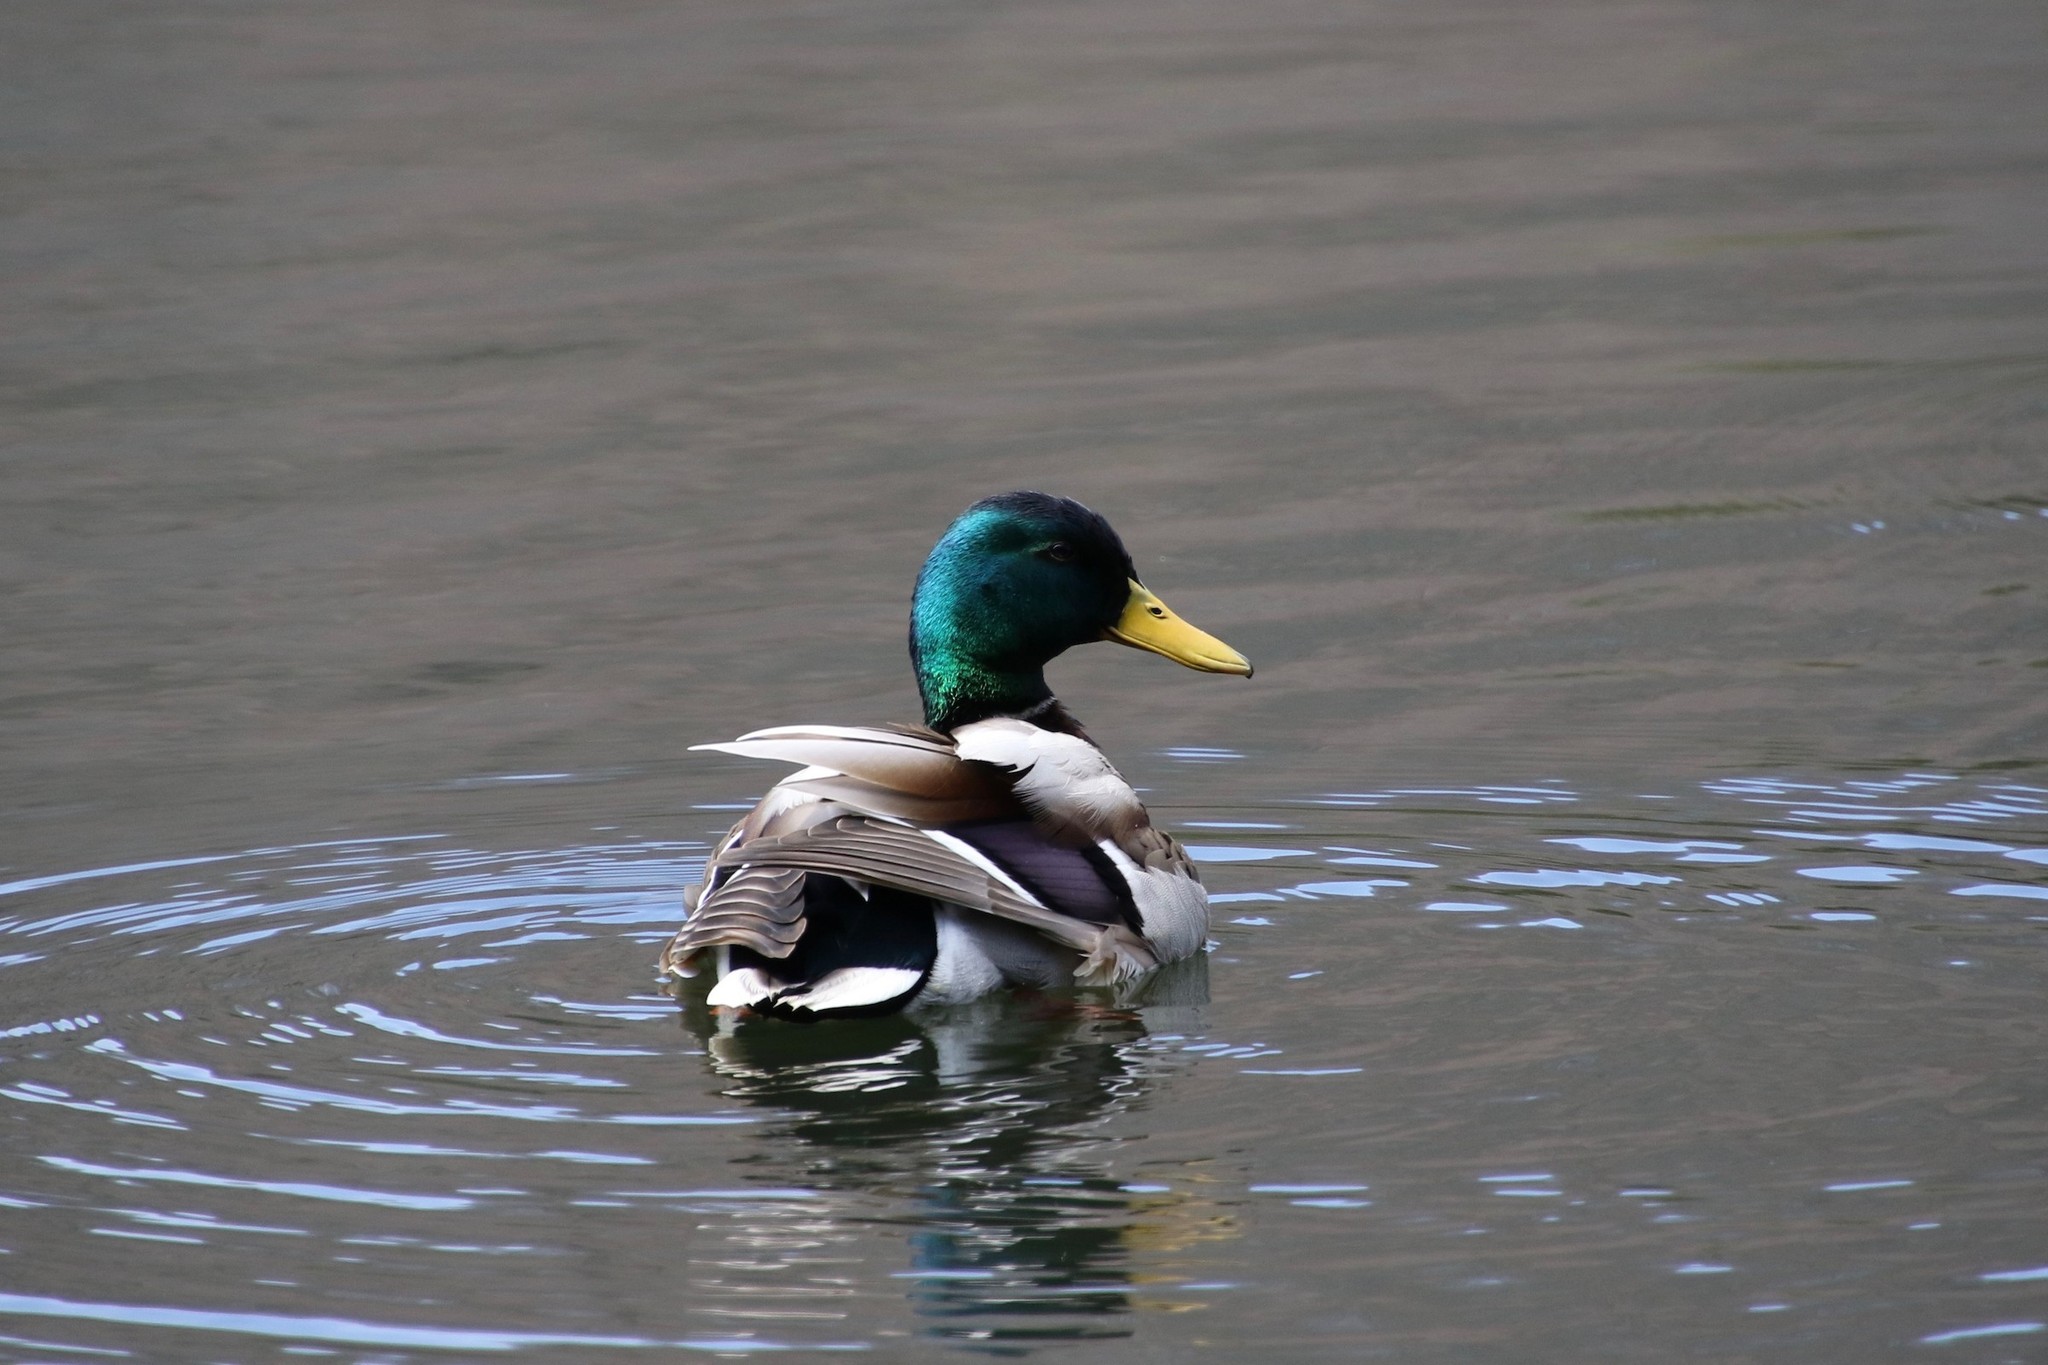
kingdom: Animalia
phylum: Chordata
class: Aves
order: Anseriformes
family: Anatidae
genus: Anas
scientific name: Anas platyrhynchos
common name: Mallard
